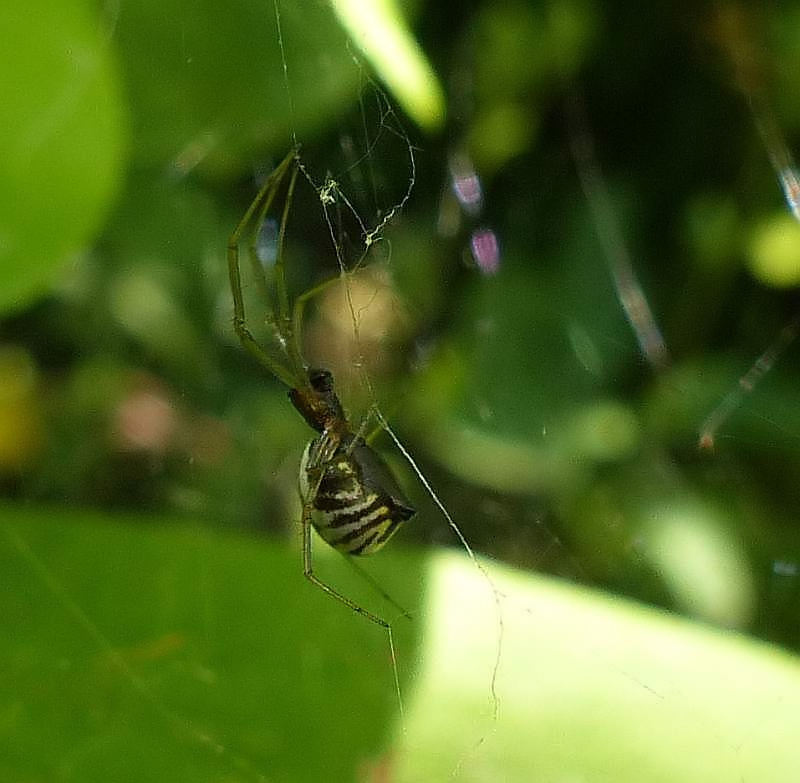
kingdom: Animalia
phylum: Arthropoda
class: Arachnida
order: Araneae
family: Linyphiidae
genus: Frontinella
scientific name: Frontinella pyramitela
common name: Bowl-and-doily spider
